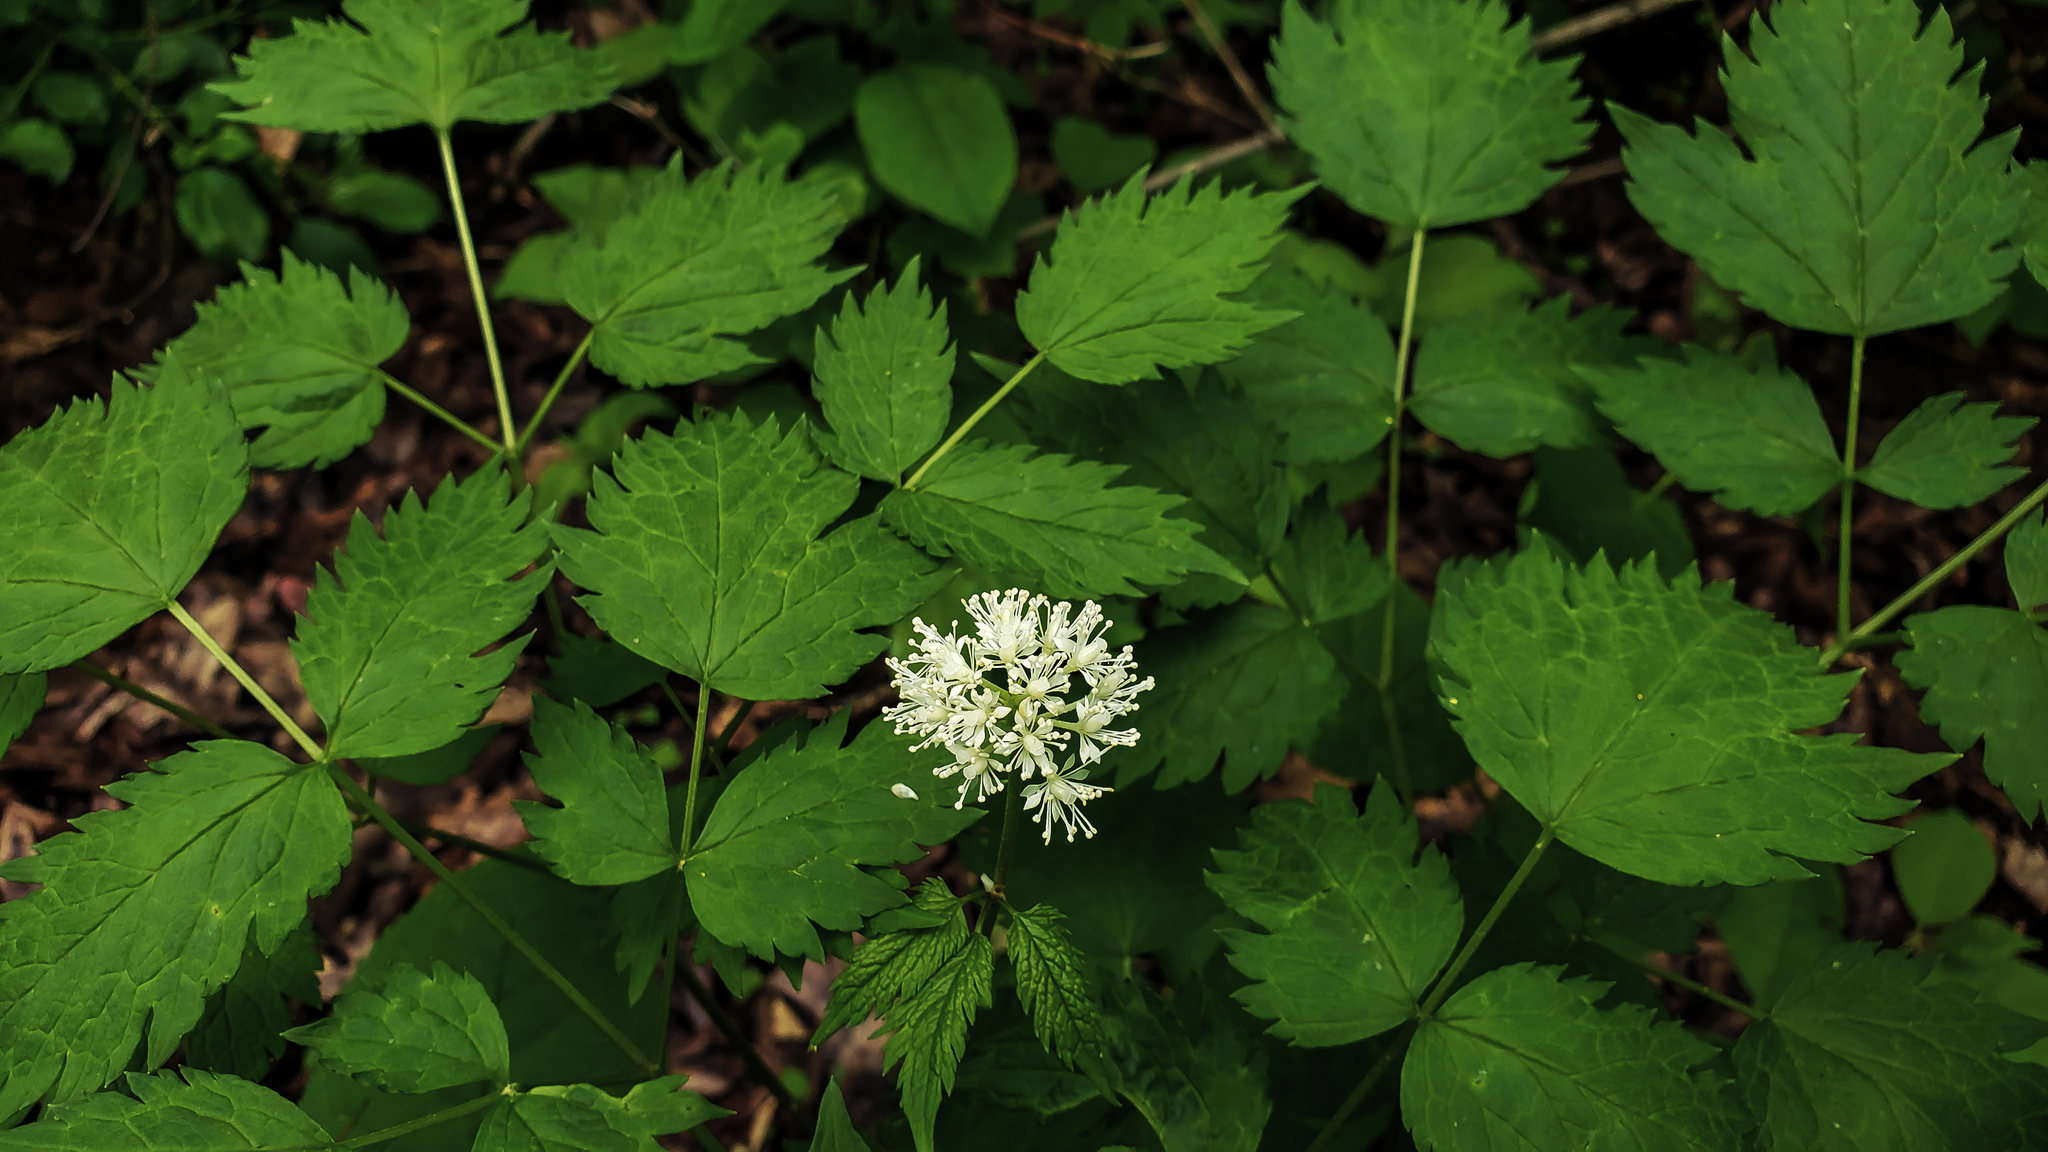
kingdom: Plantae
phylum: Tracheophyta
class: Magnoliopsida
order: Ranunculales
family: Ranunculaceae
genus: Actaea
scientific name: Actaea rubra
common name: Red baneberry
